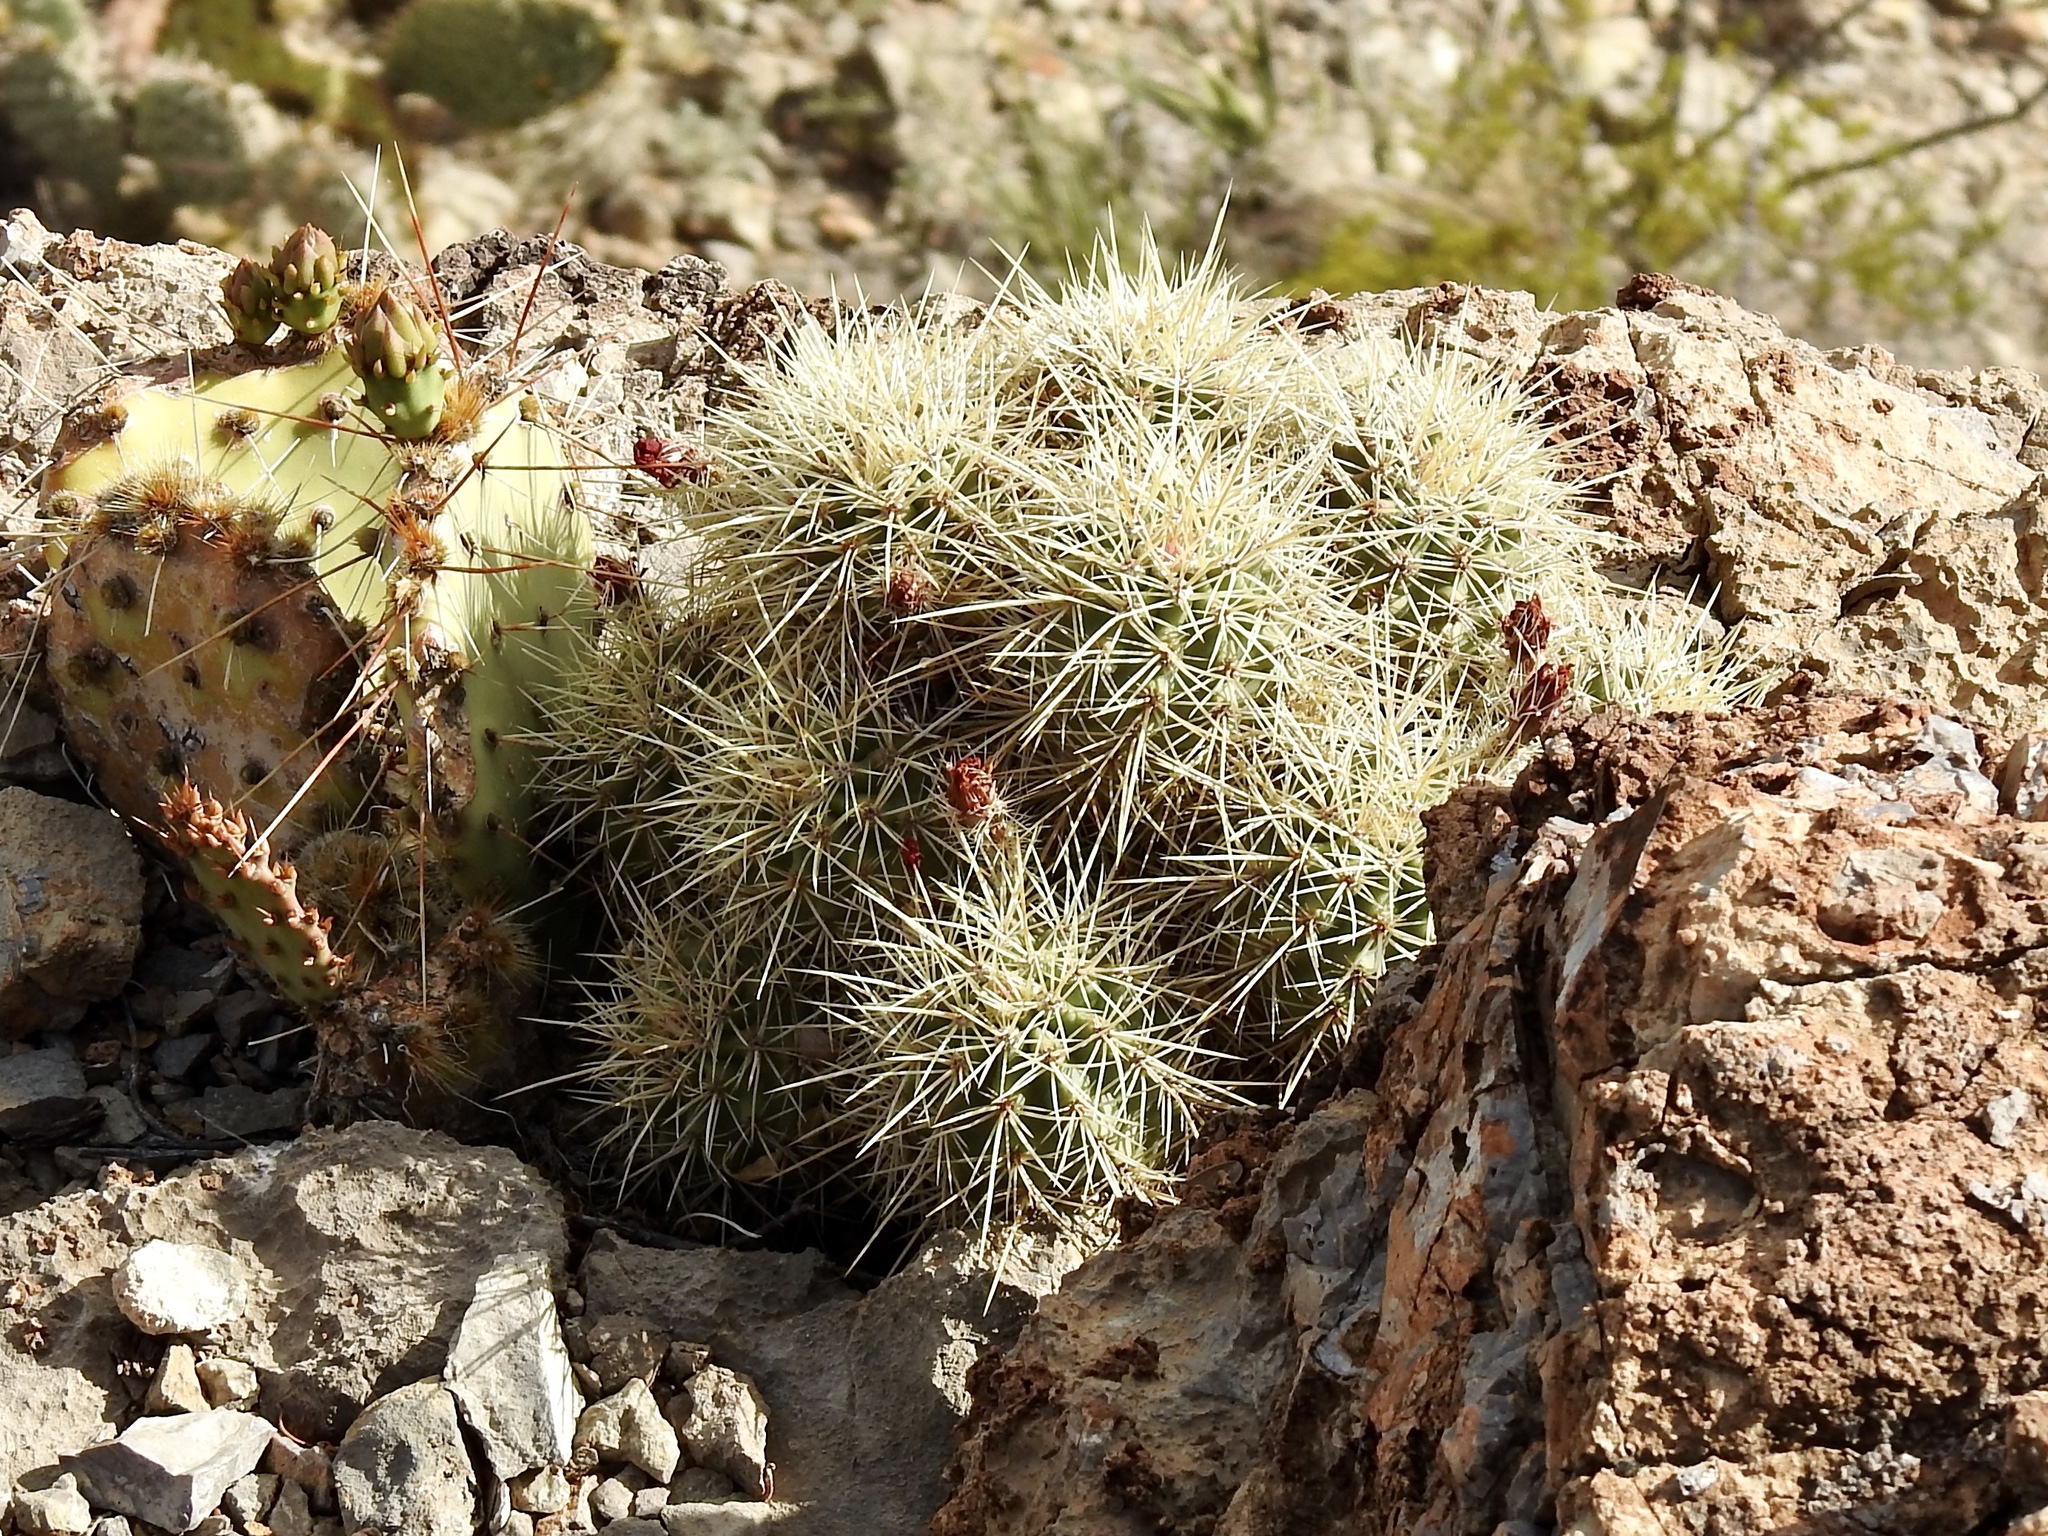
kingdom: Plantae
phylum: Tracheophyta
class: Magnoliopsida
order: Caryophyllales
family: Cactaceae
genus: Echinocereus
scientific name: Echinocereus coccineus
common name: Scarlet hedgehog cactus
